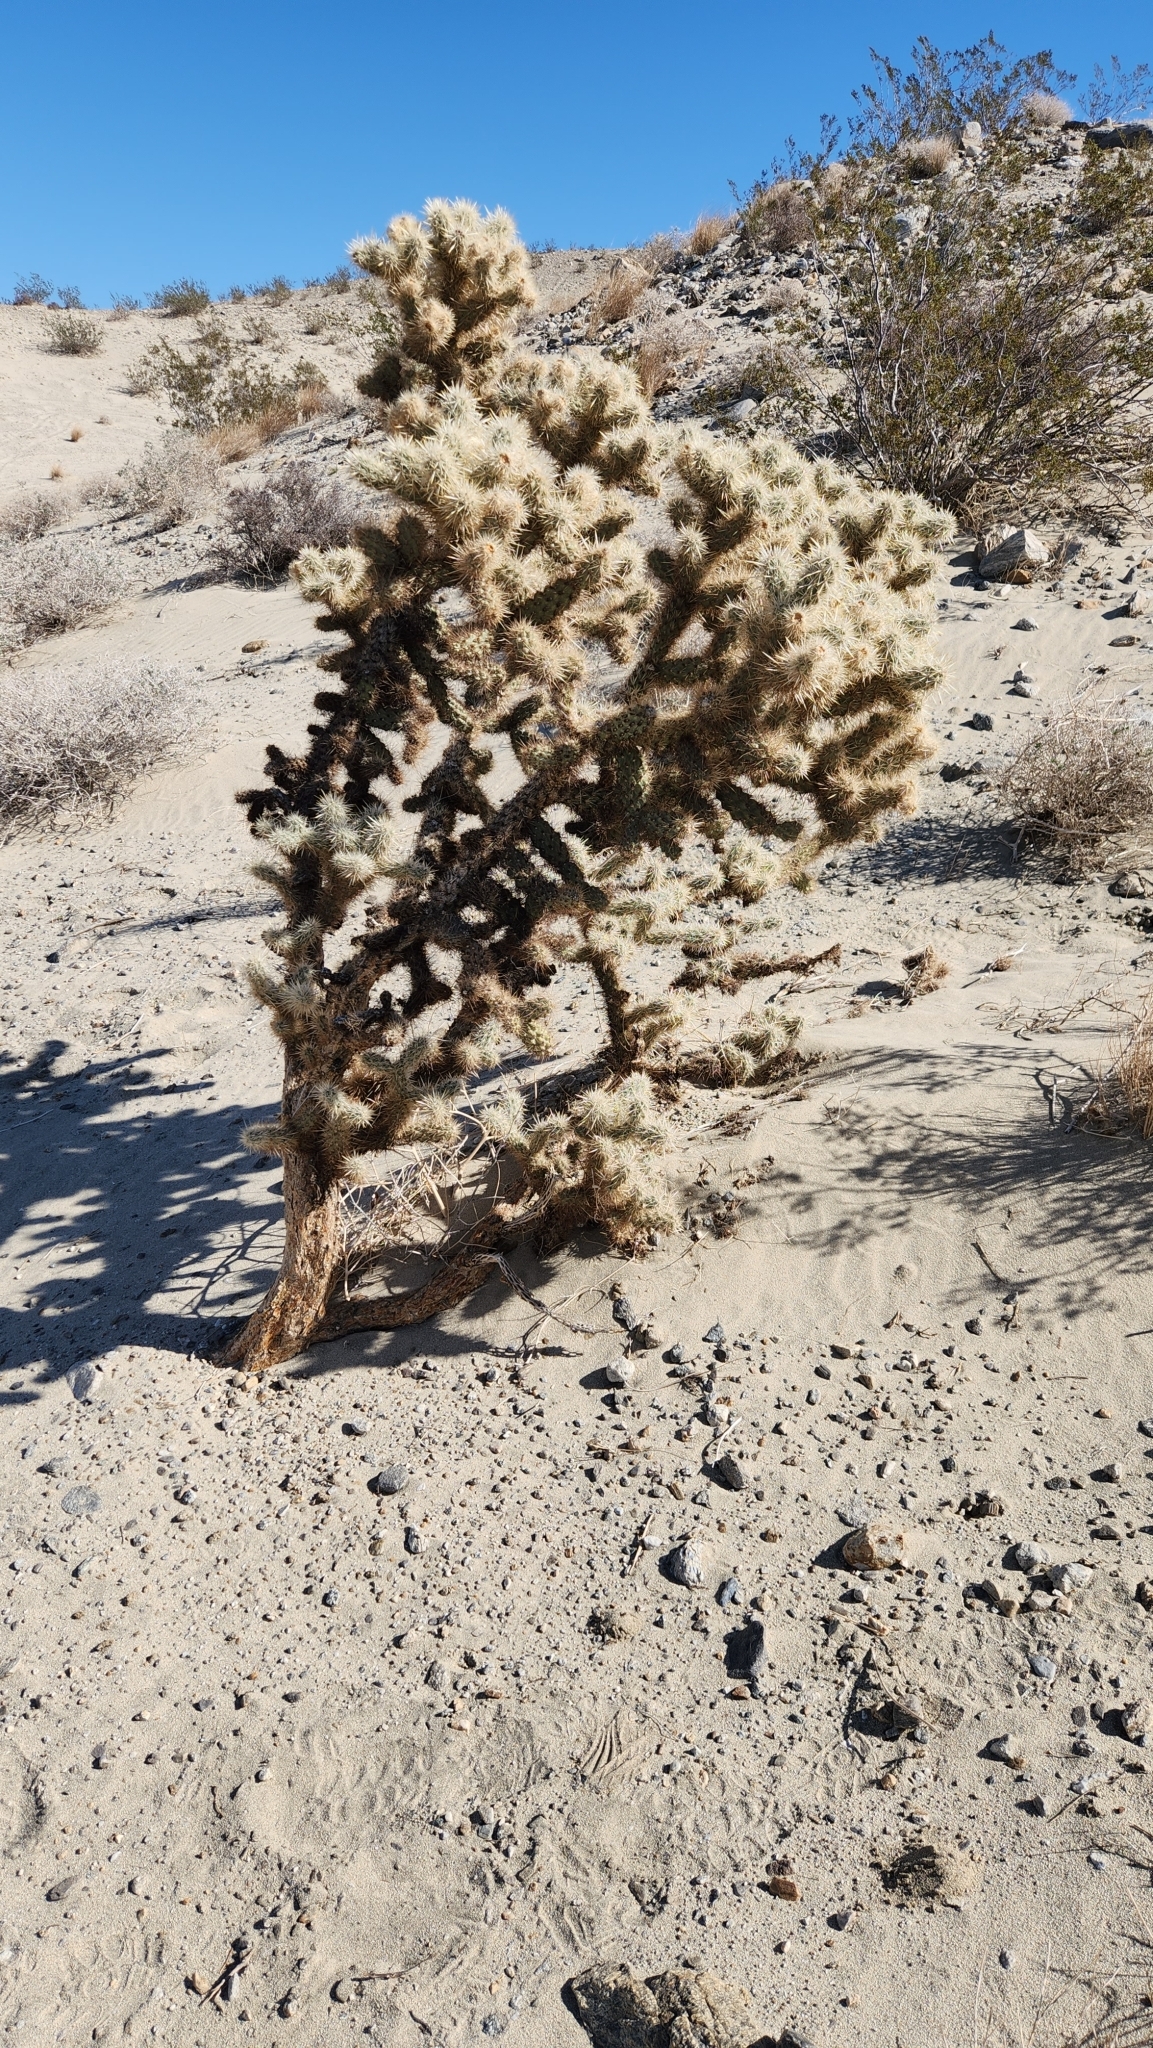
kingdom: Plantae
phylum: Tracheophyta
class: Magnoliopsida
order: Caryophyllales
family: Cactaceae
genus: Cylindropuntia
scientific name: Cylindropuntia echinocarpa
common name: Ground cholla
